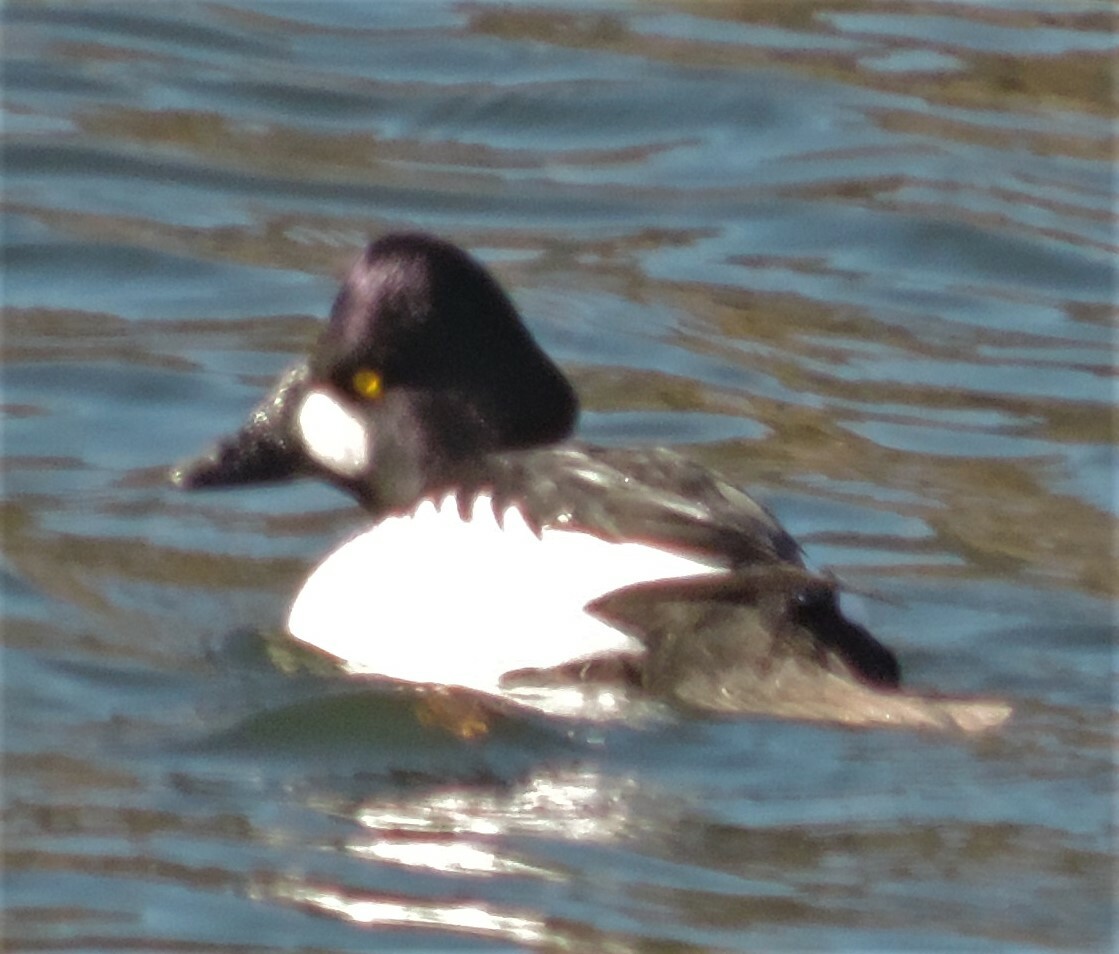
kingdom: Animalia
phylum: Chordata
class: Aves
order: Anseriformes
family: Anatidae
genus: Bucephala
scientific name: Bucephala clangula
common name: Common goldeneye
